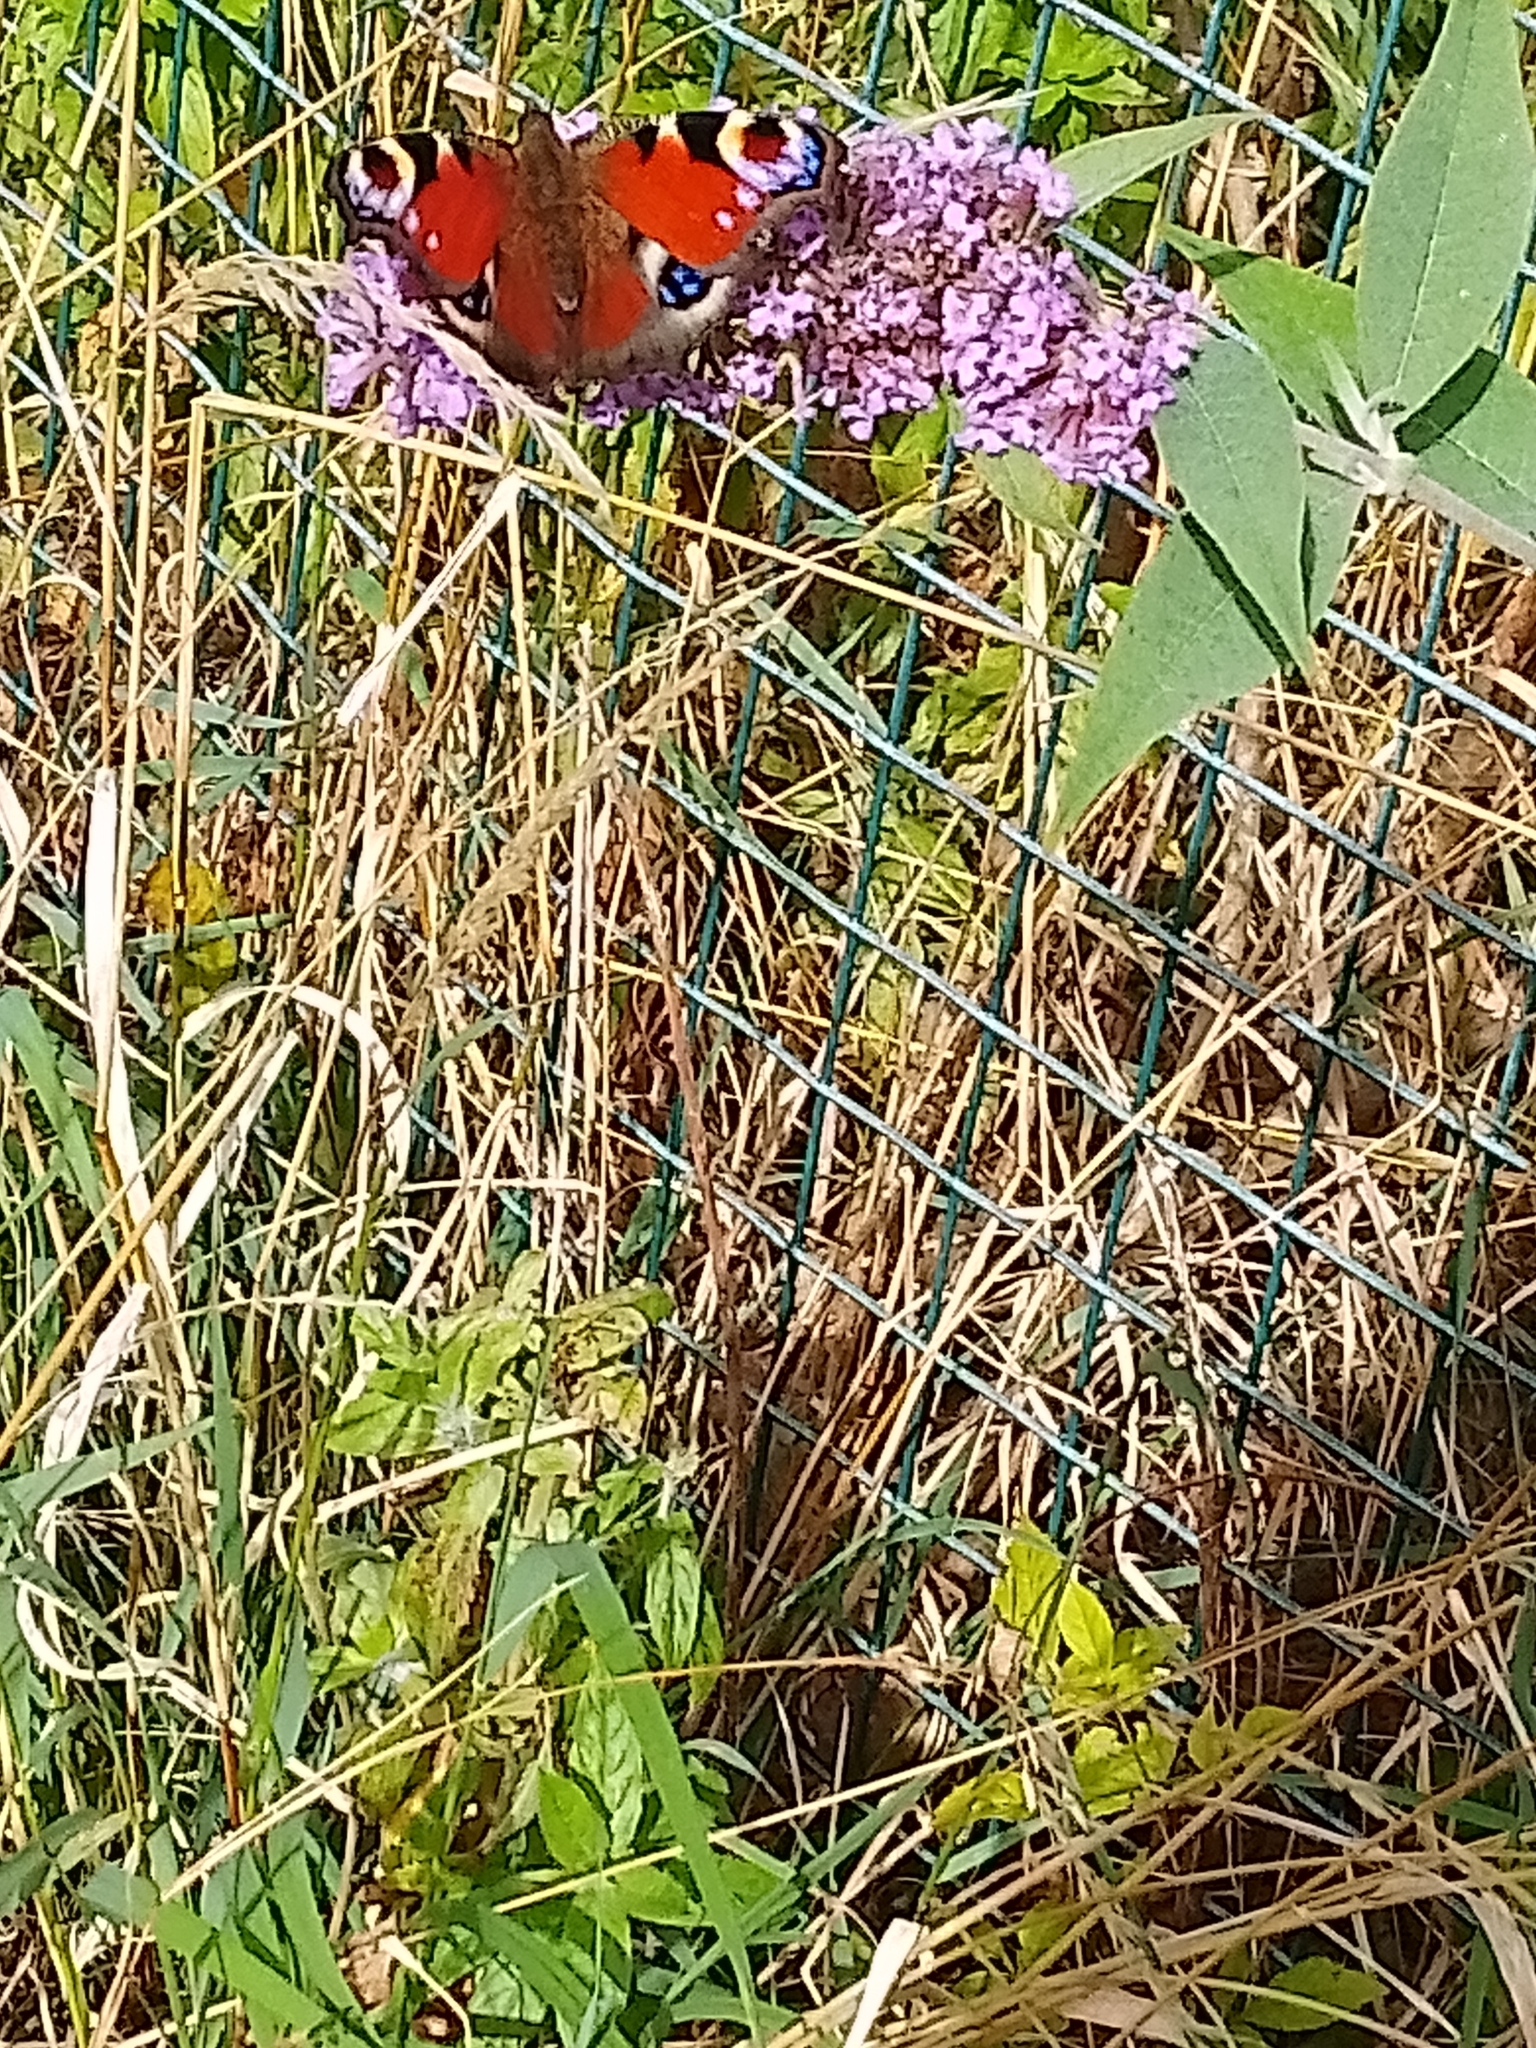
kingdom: Animalia
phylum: Arthropoda
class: Insecta
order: Lepidoptera
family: Nymphalidae
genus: Aglais
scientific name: Aglais io
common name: Peacock
